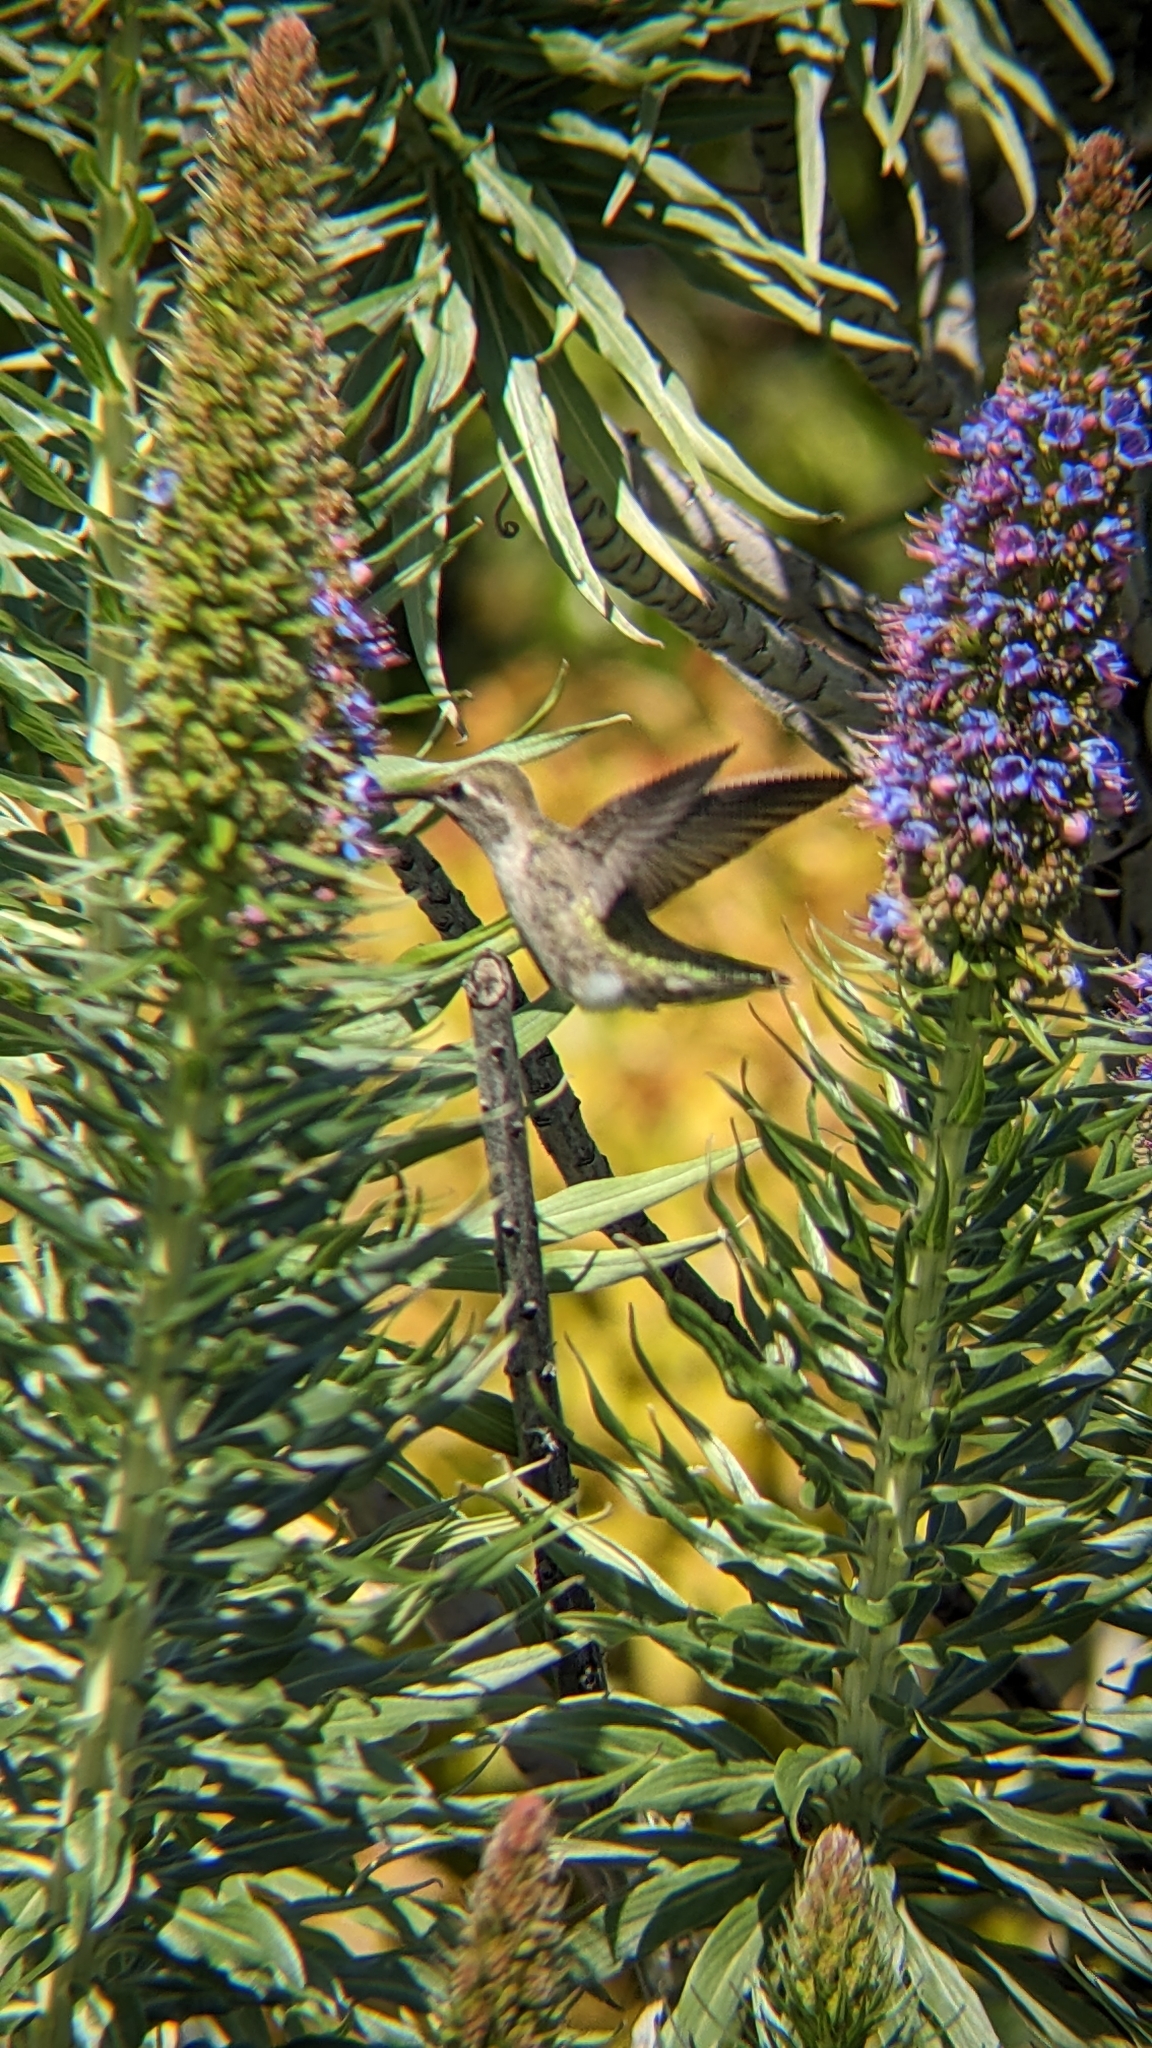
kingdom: Animalia
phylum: Chordata
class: Aves
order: Apodiformes
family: Trochilidae
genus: Calypte
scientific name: Calypte anna
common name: Anna's hummingbird
